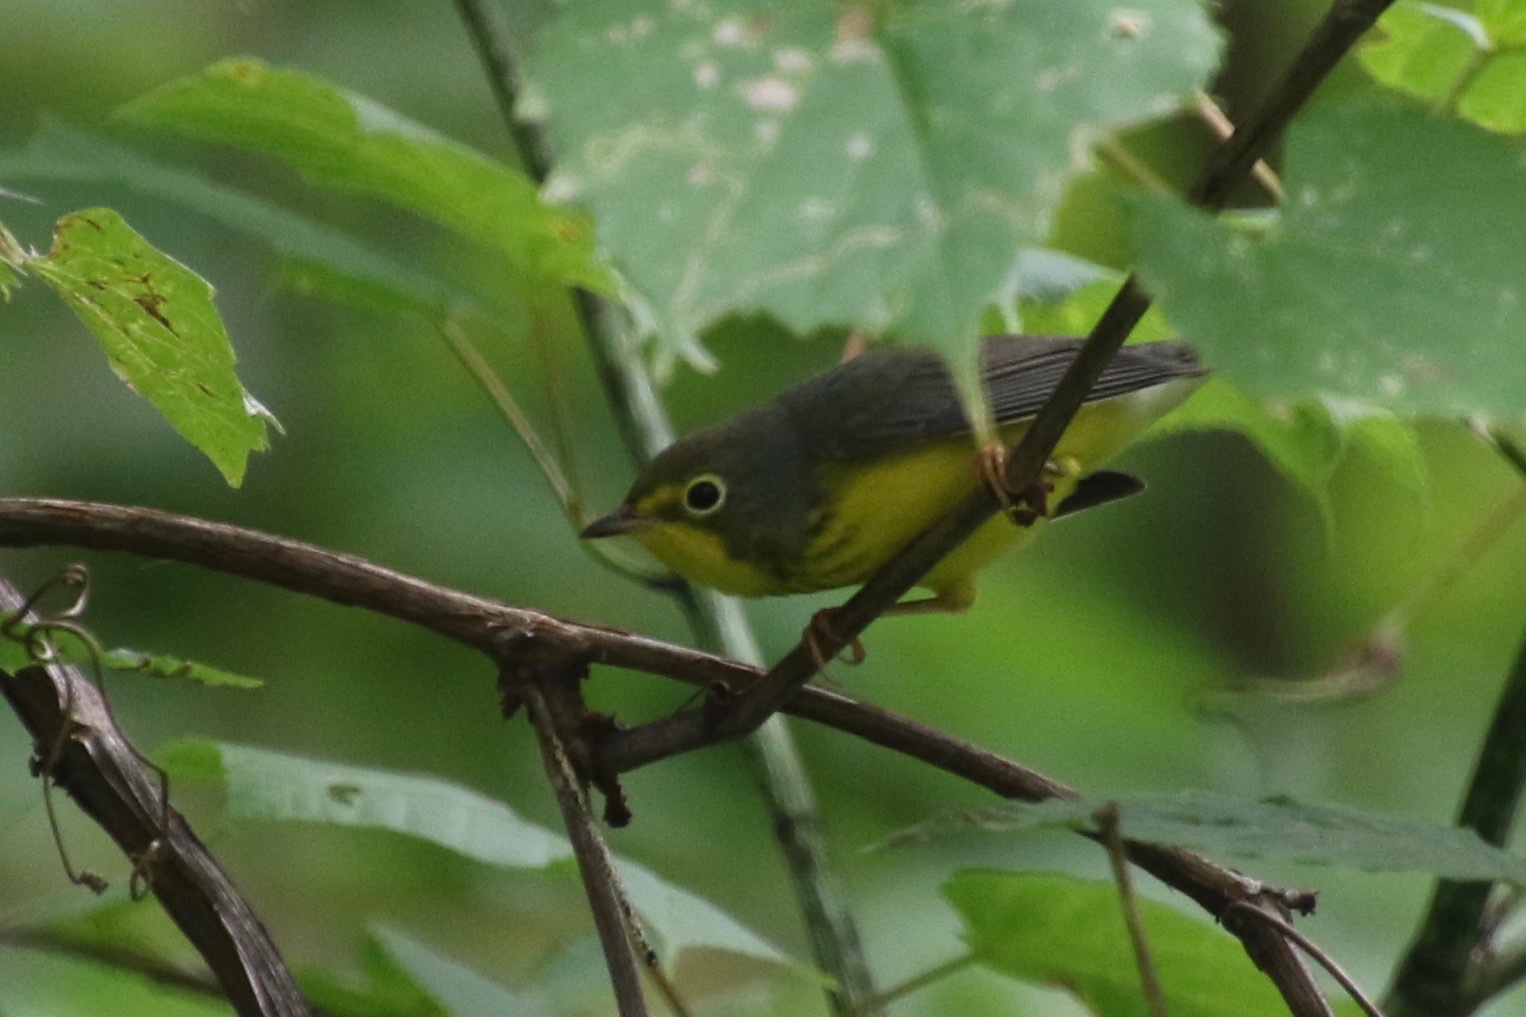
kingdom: Animalia
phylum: Chordata
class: Aves
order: Passeriformes
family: Parulidae
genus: Cardellina
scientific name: Cardellina canadensis
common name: Canada warbler
